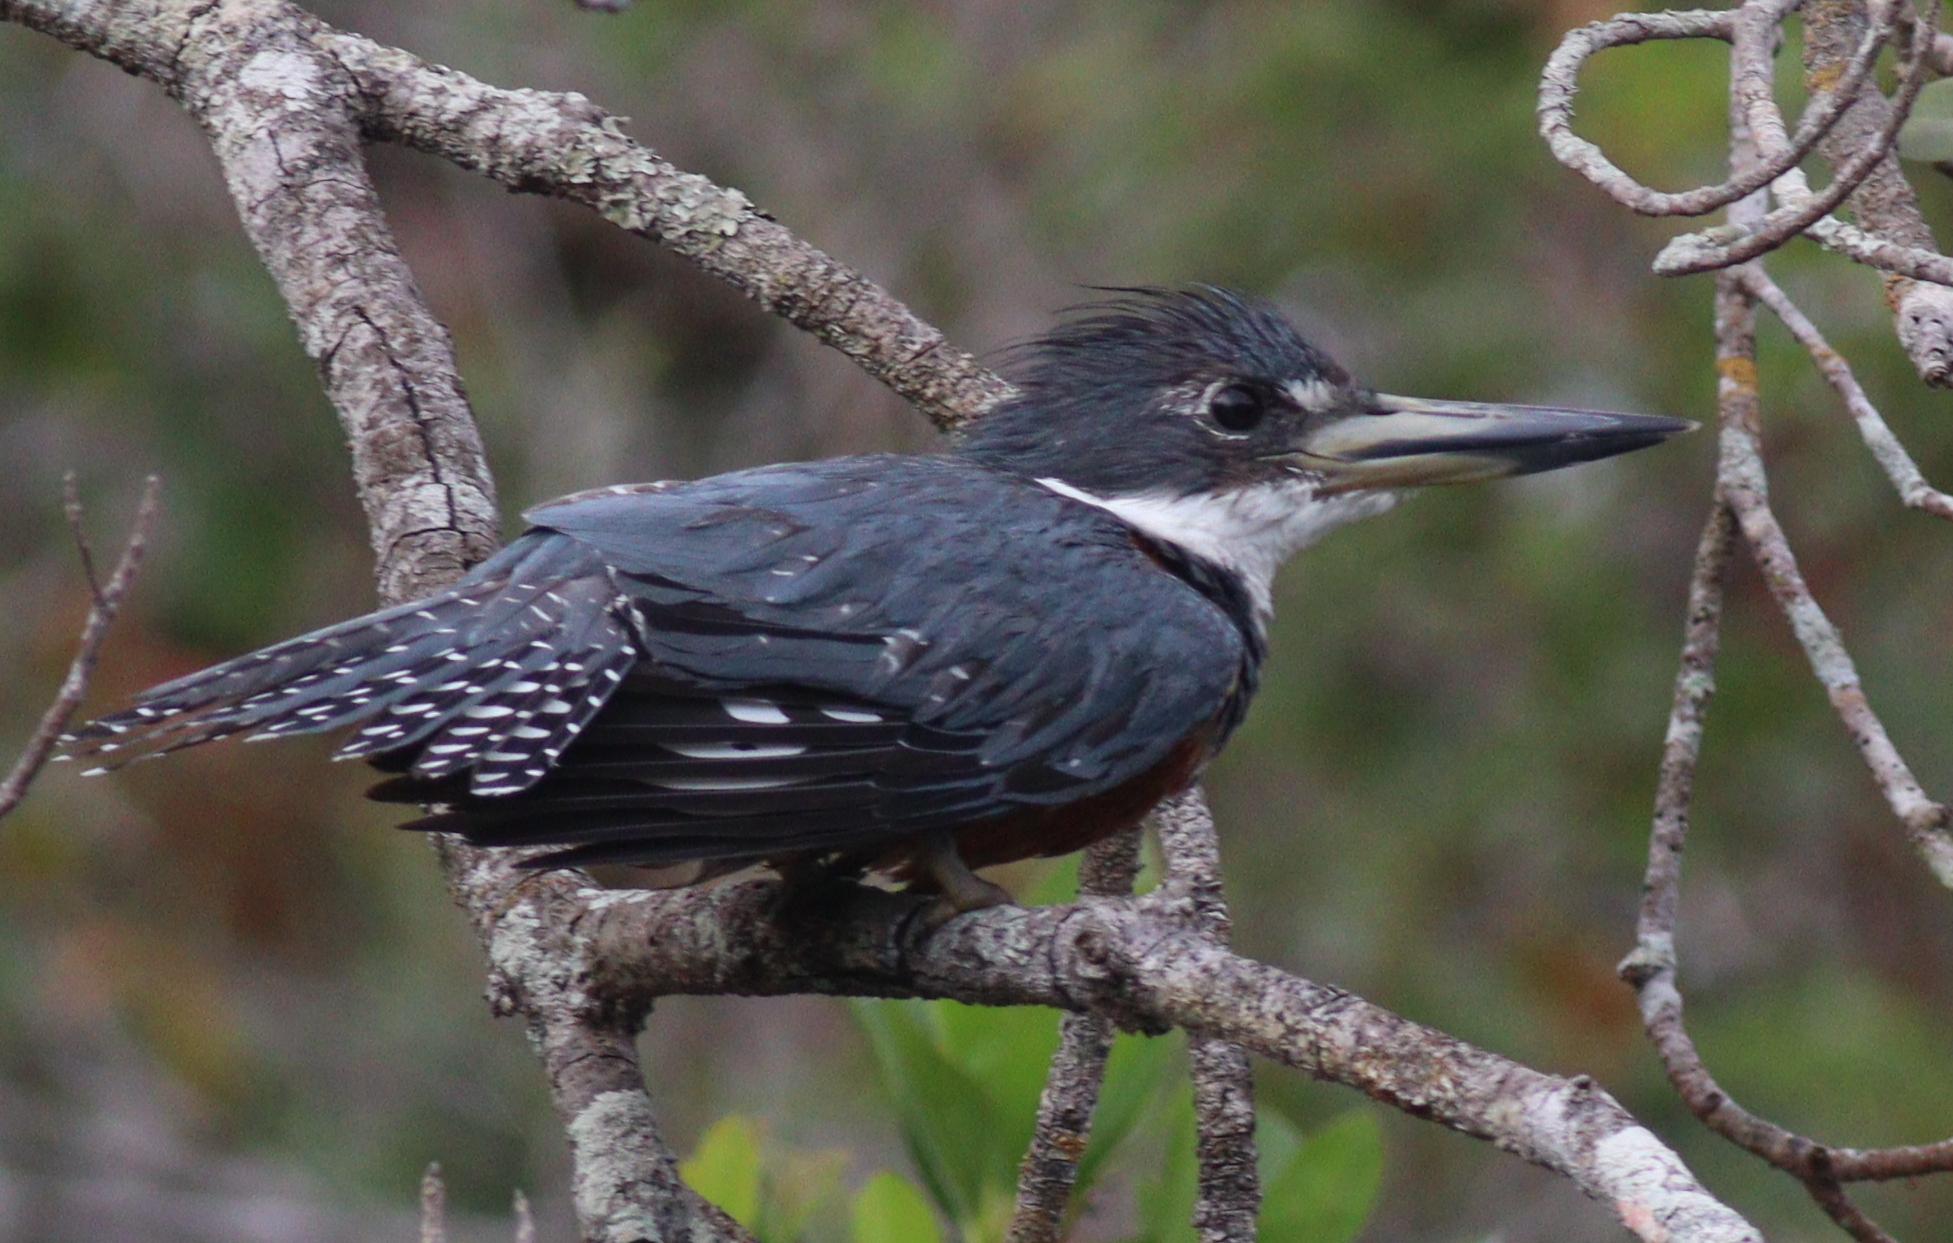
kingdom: Animalia
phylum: Chordata
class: Aves
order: Coraciiformes
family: Alcedinidae
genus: Megaceryle
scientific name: Megaceryle torquata
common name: Ringed kingfisher
